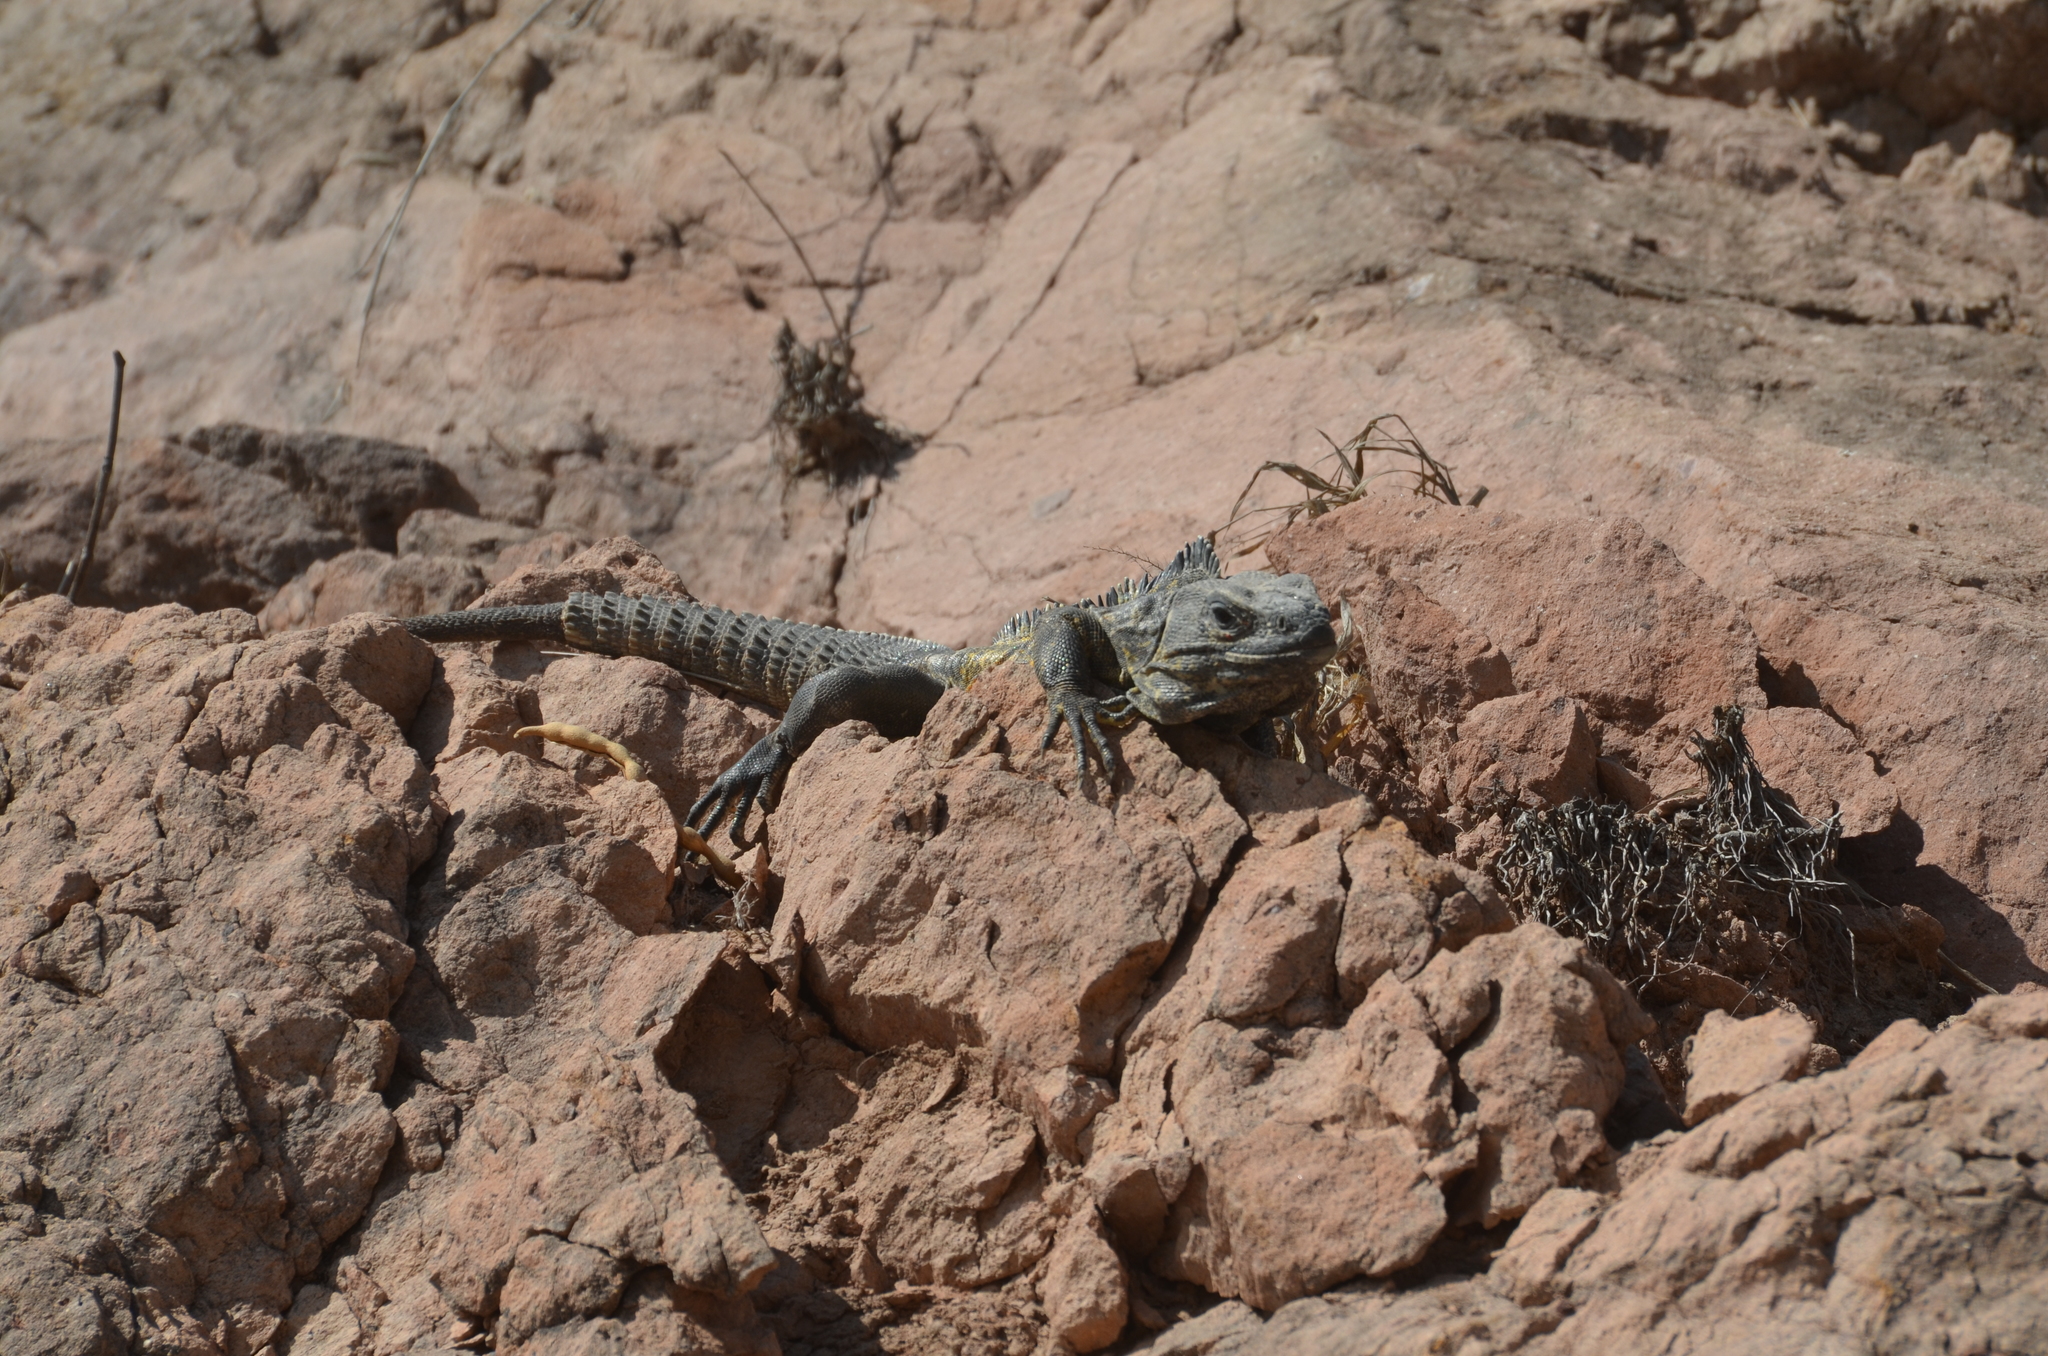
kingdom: Animalia
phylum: Chordata
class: Squamata
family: Iguanidae
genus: Ctenosaura
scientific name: Ctenosaura pectinata
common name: Guerreran spiny-tailed iguana
